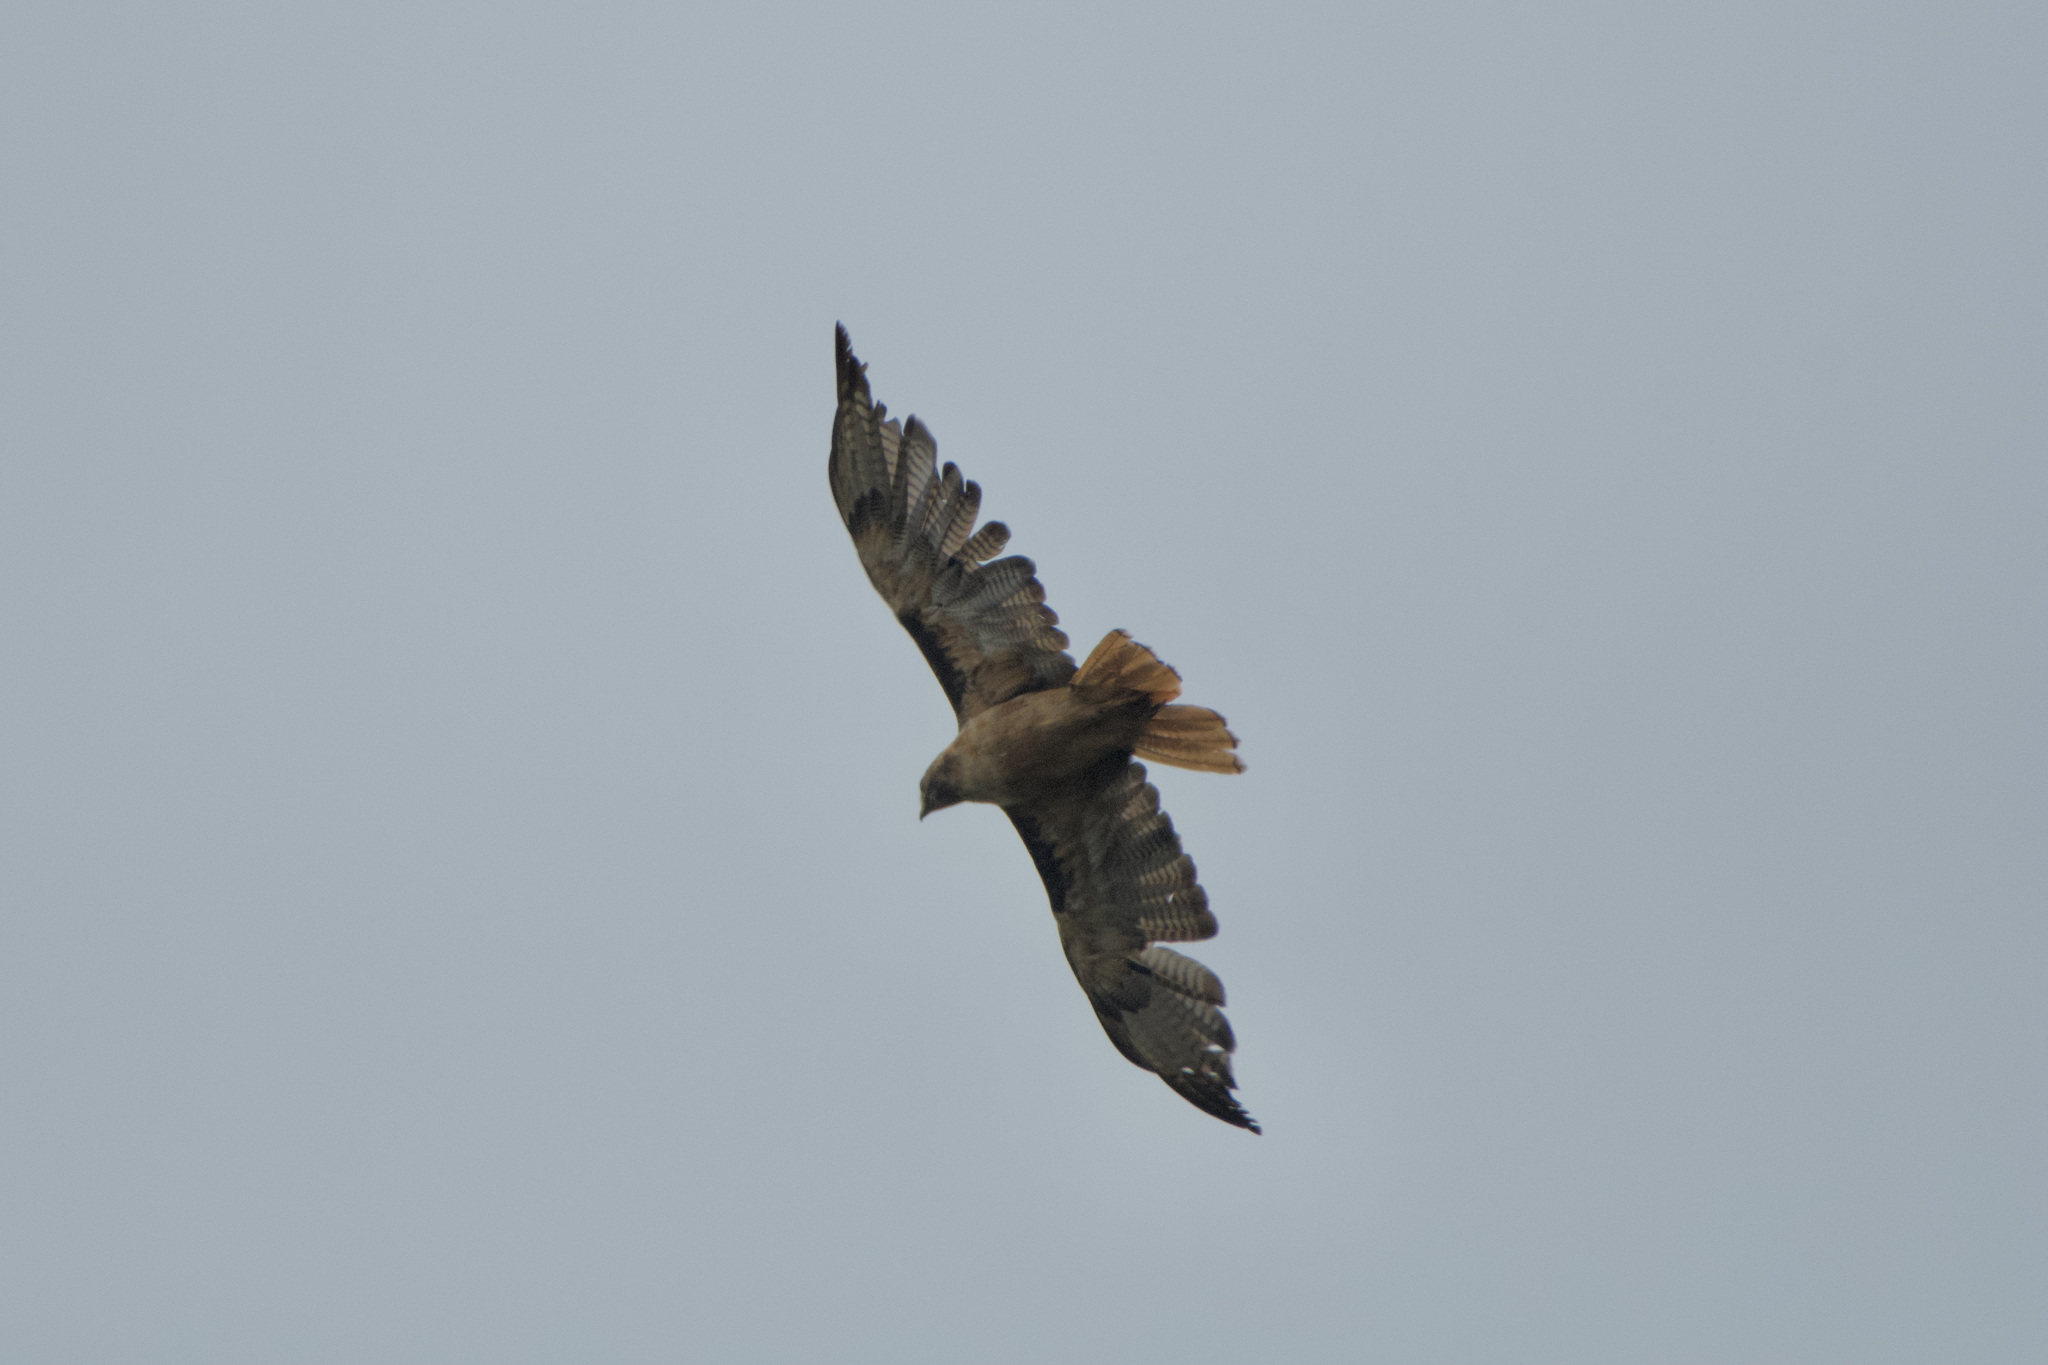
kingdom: Animalia
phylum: Chordata
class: Aves
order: Accipitriformes
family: Accipitridae
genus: Buteo
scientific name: Buteo jamaicensis
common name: Red-tailed hawk
